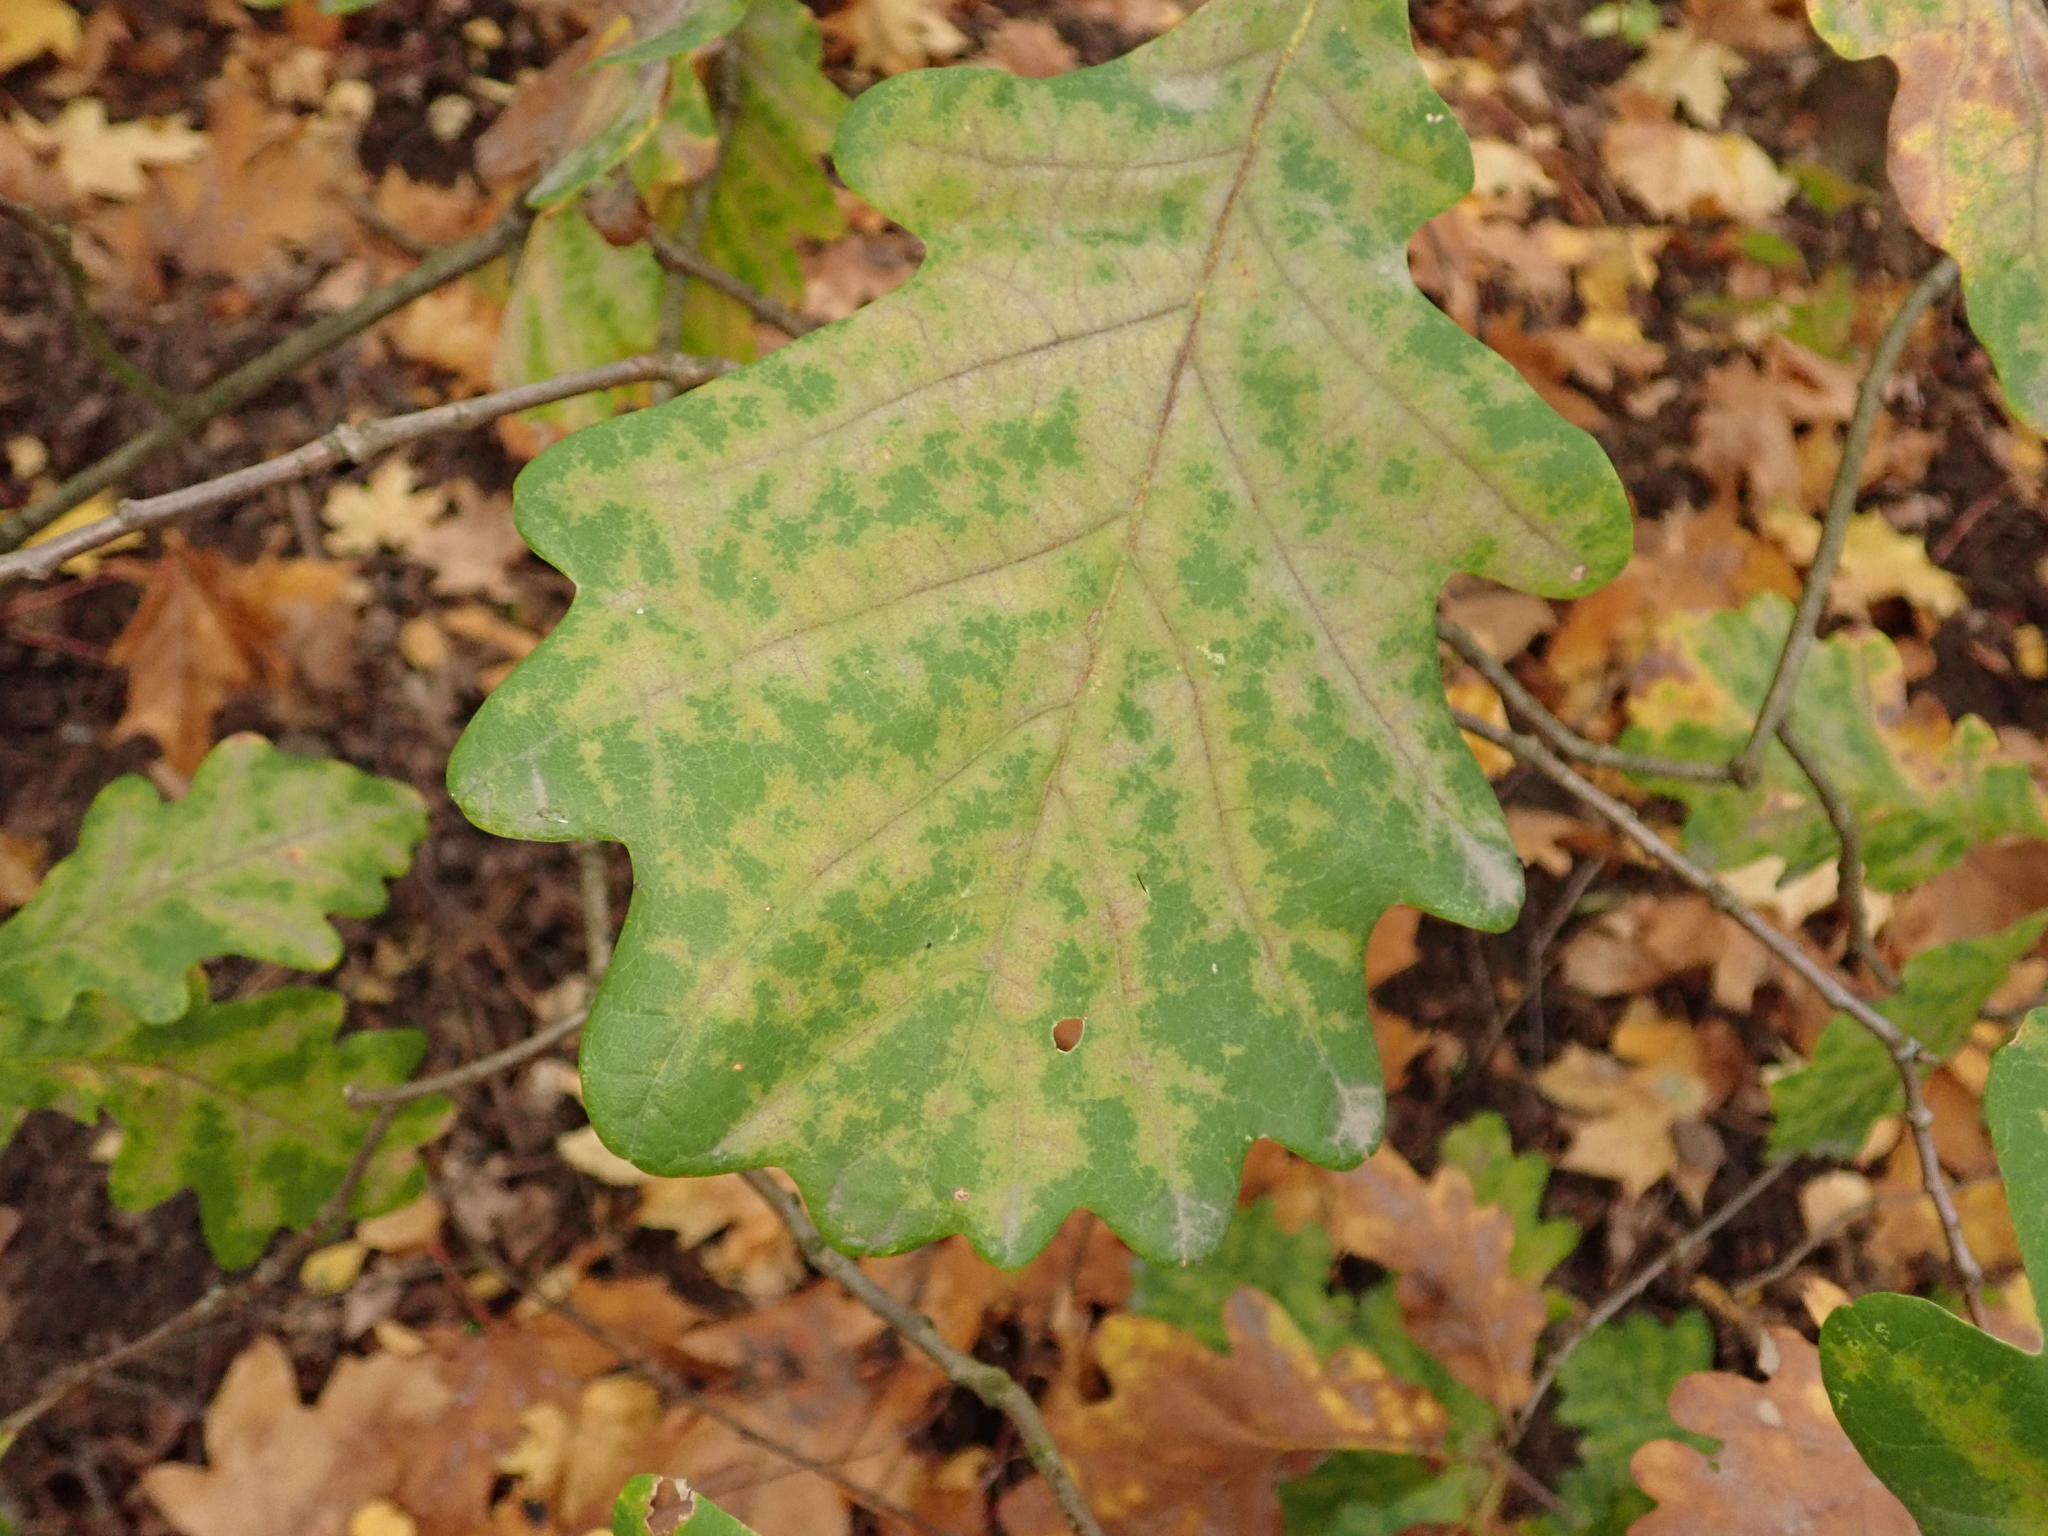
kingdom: Plantae
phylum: Tracheophyta
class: Magnoliopsida
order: Fagales
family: Fagaceae
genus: Quercus
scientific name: Quercus robur
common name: Pedunculate oak
